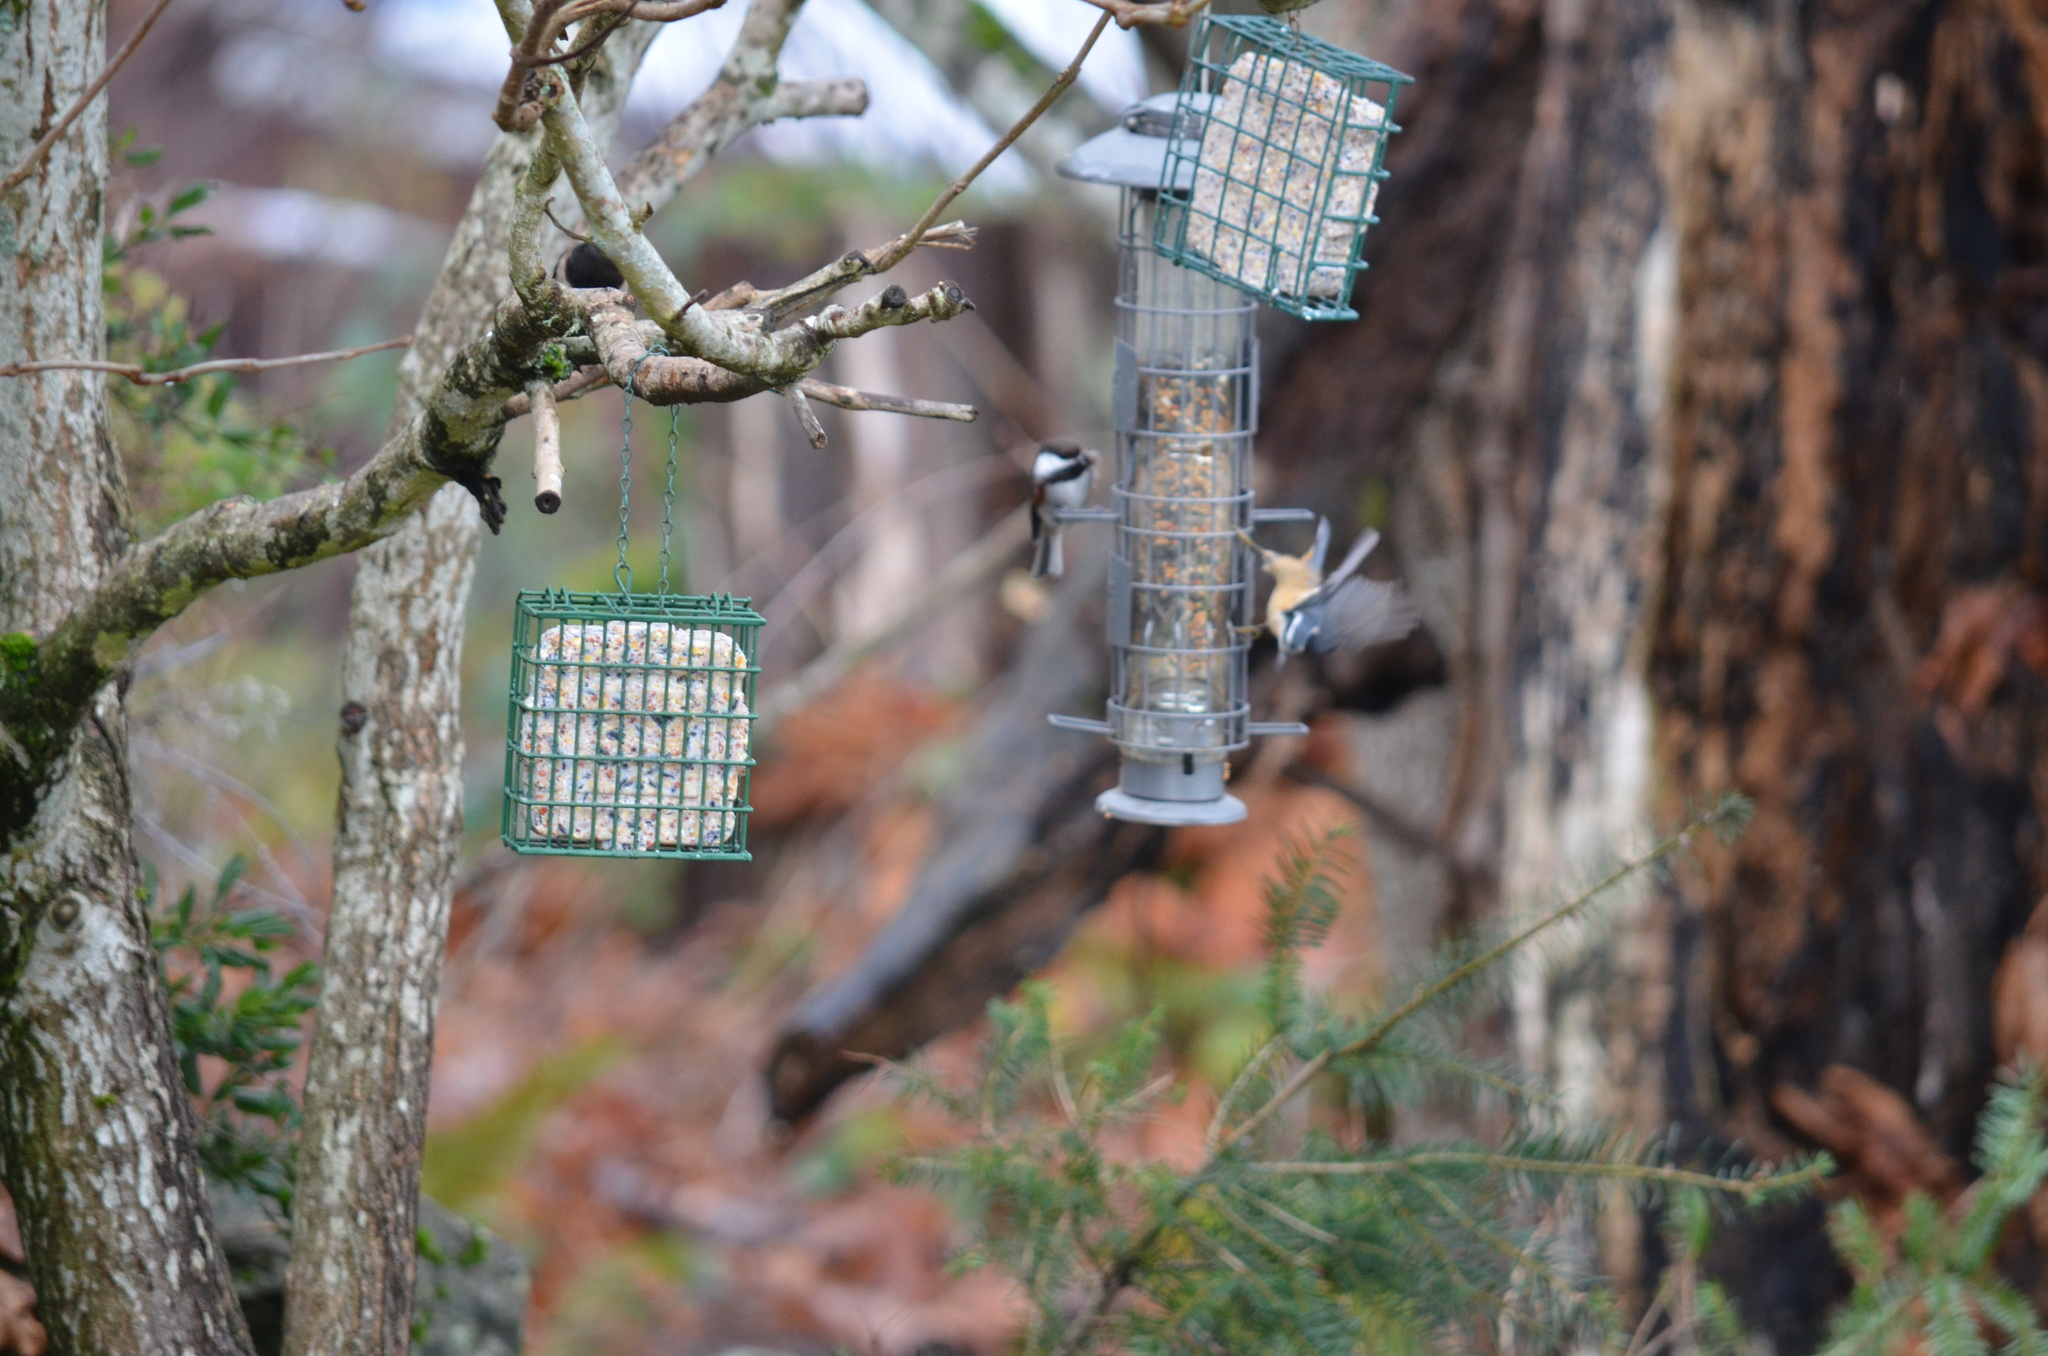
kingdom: Animalia
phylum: Chordata
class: Aves
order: Passeriformes
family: Paridae
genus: Poecile
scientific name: Poecile rufescens
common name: Chestnut-backed chickadee
